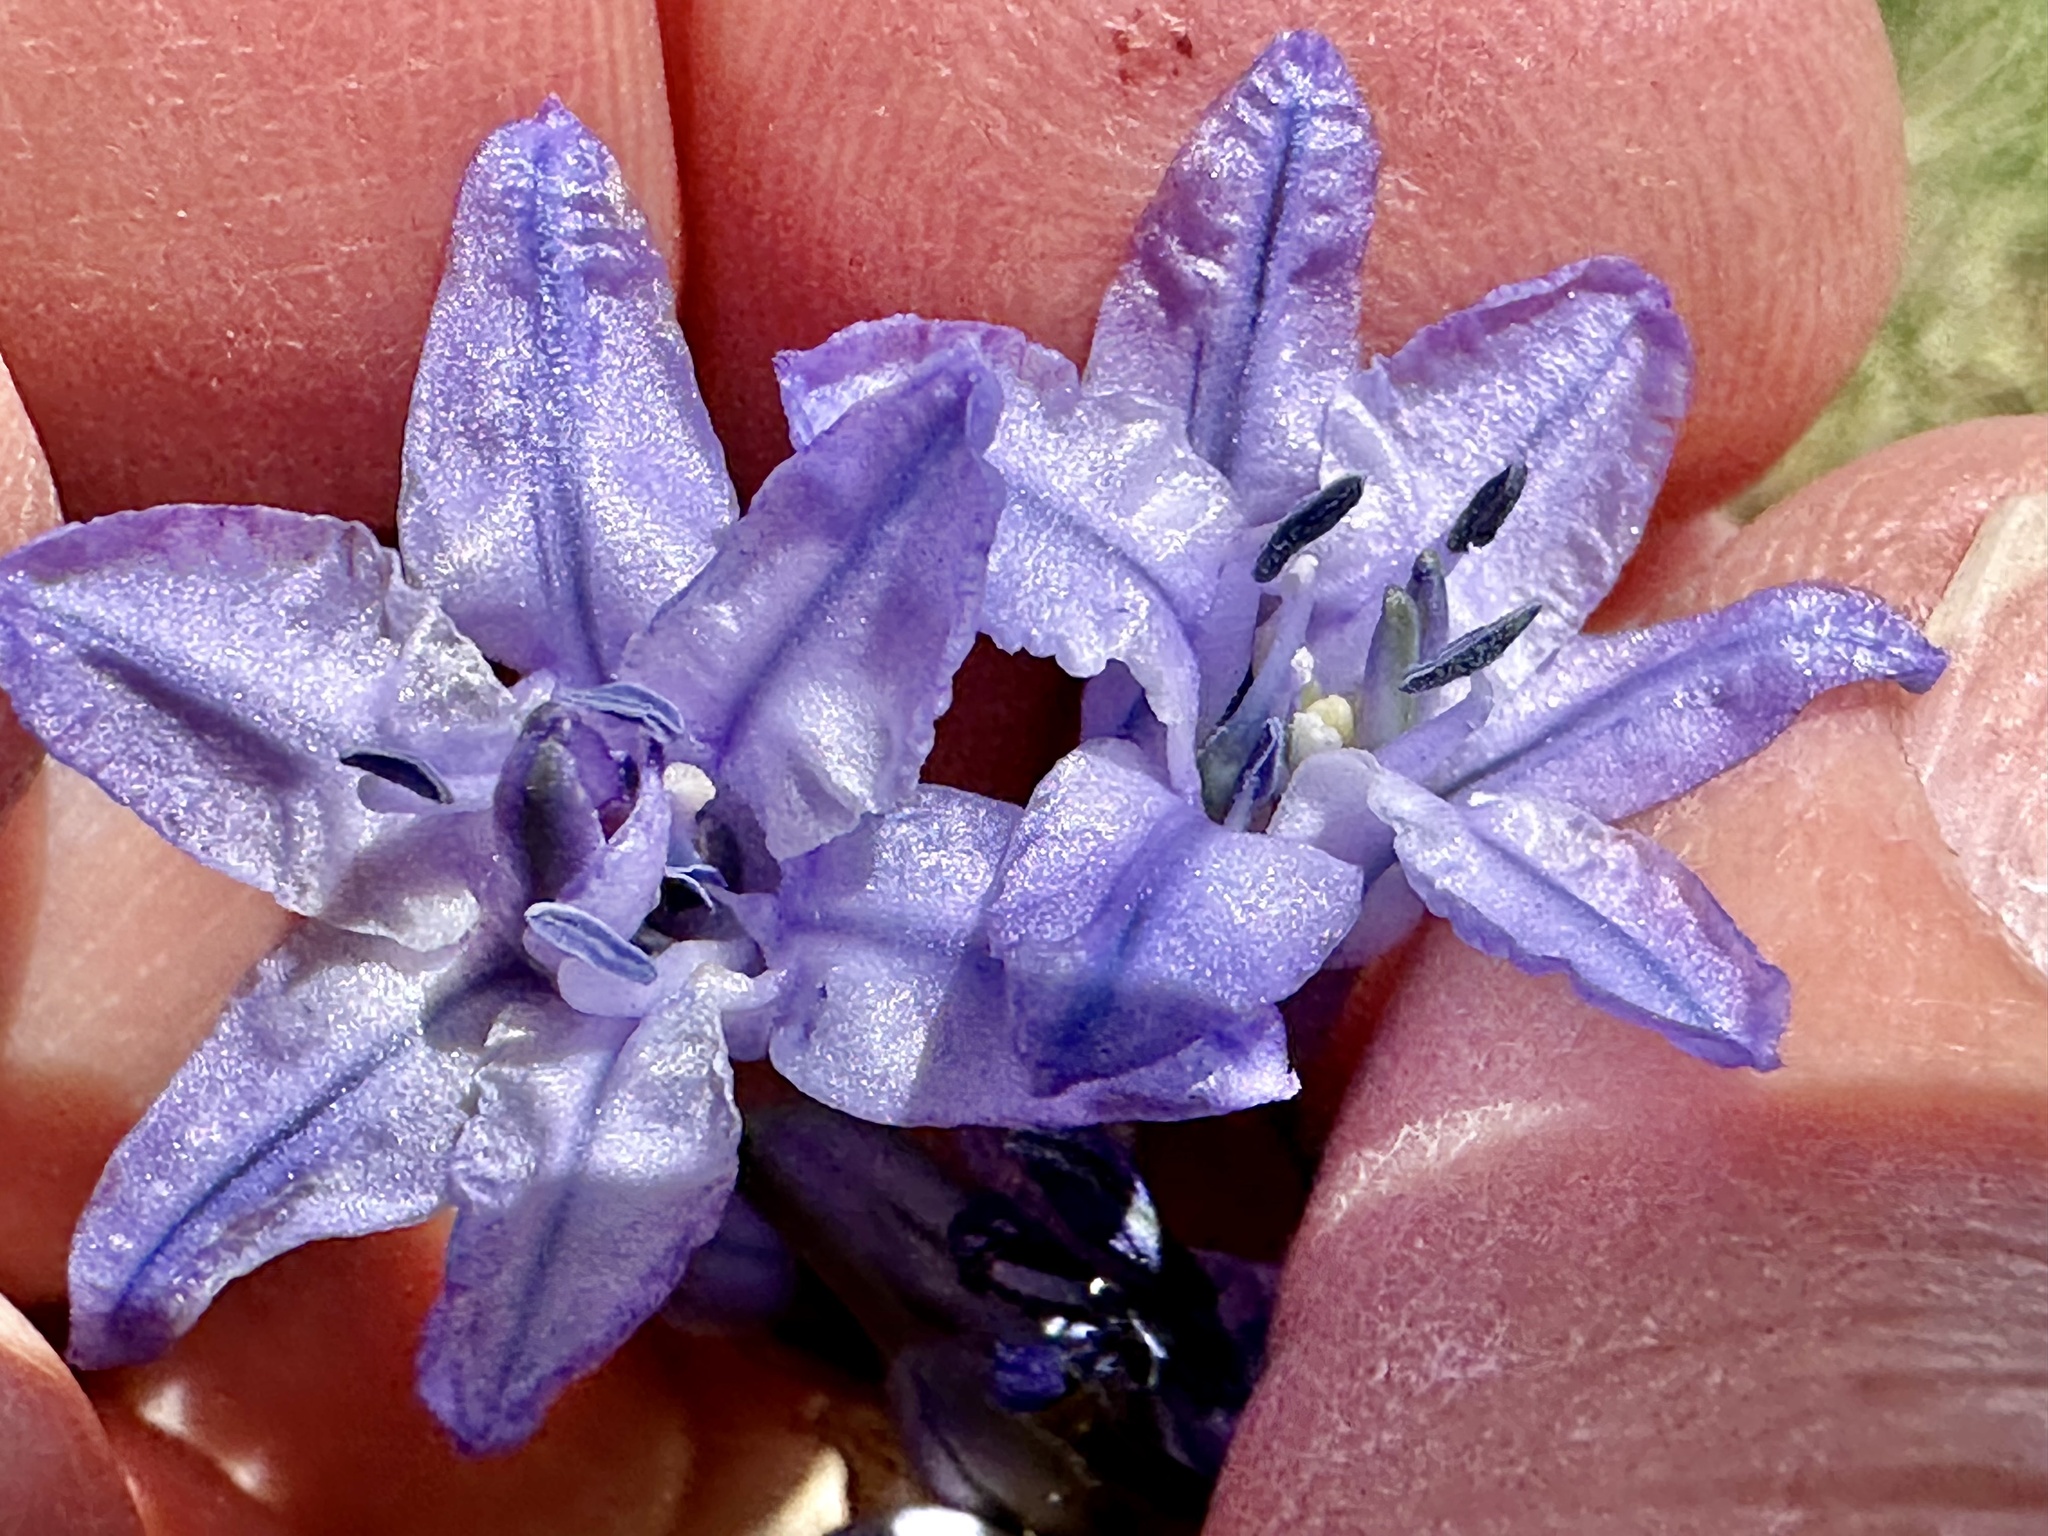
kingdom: Plantae
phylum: Tracheophyta
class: Liliopsida
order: Asparagales
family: Asparagaceae
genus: Triteleia
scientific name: Triteleia grandiflora
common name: Wild hyacinth
